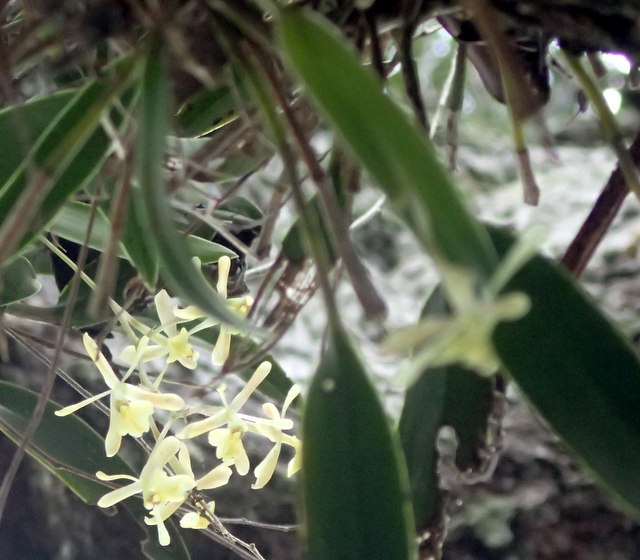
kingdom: Plantae
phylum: Tracheophyta
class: Liliopsida
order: Asparagales
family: Orchidaceae
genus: Epidendrum
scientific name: Epidendrum conopseum
